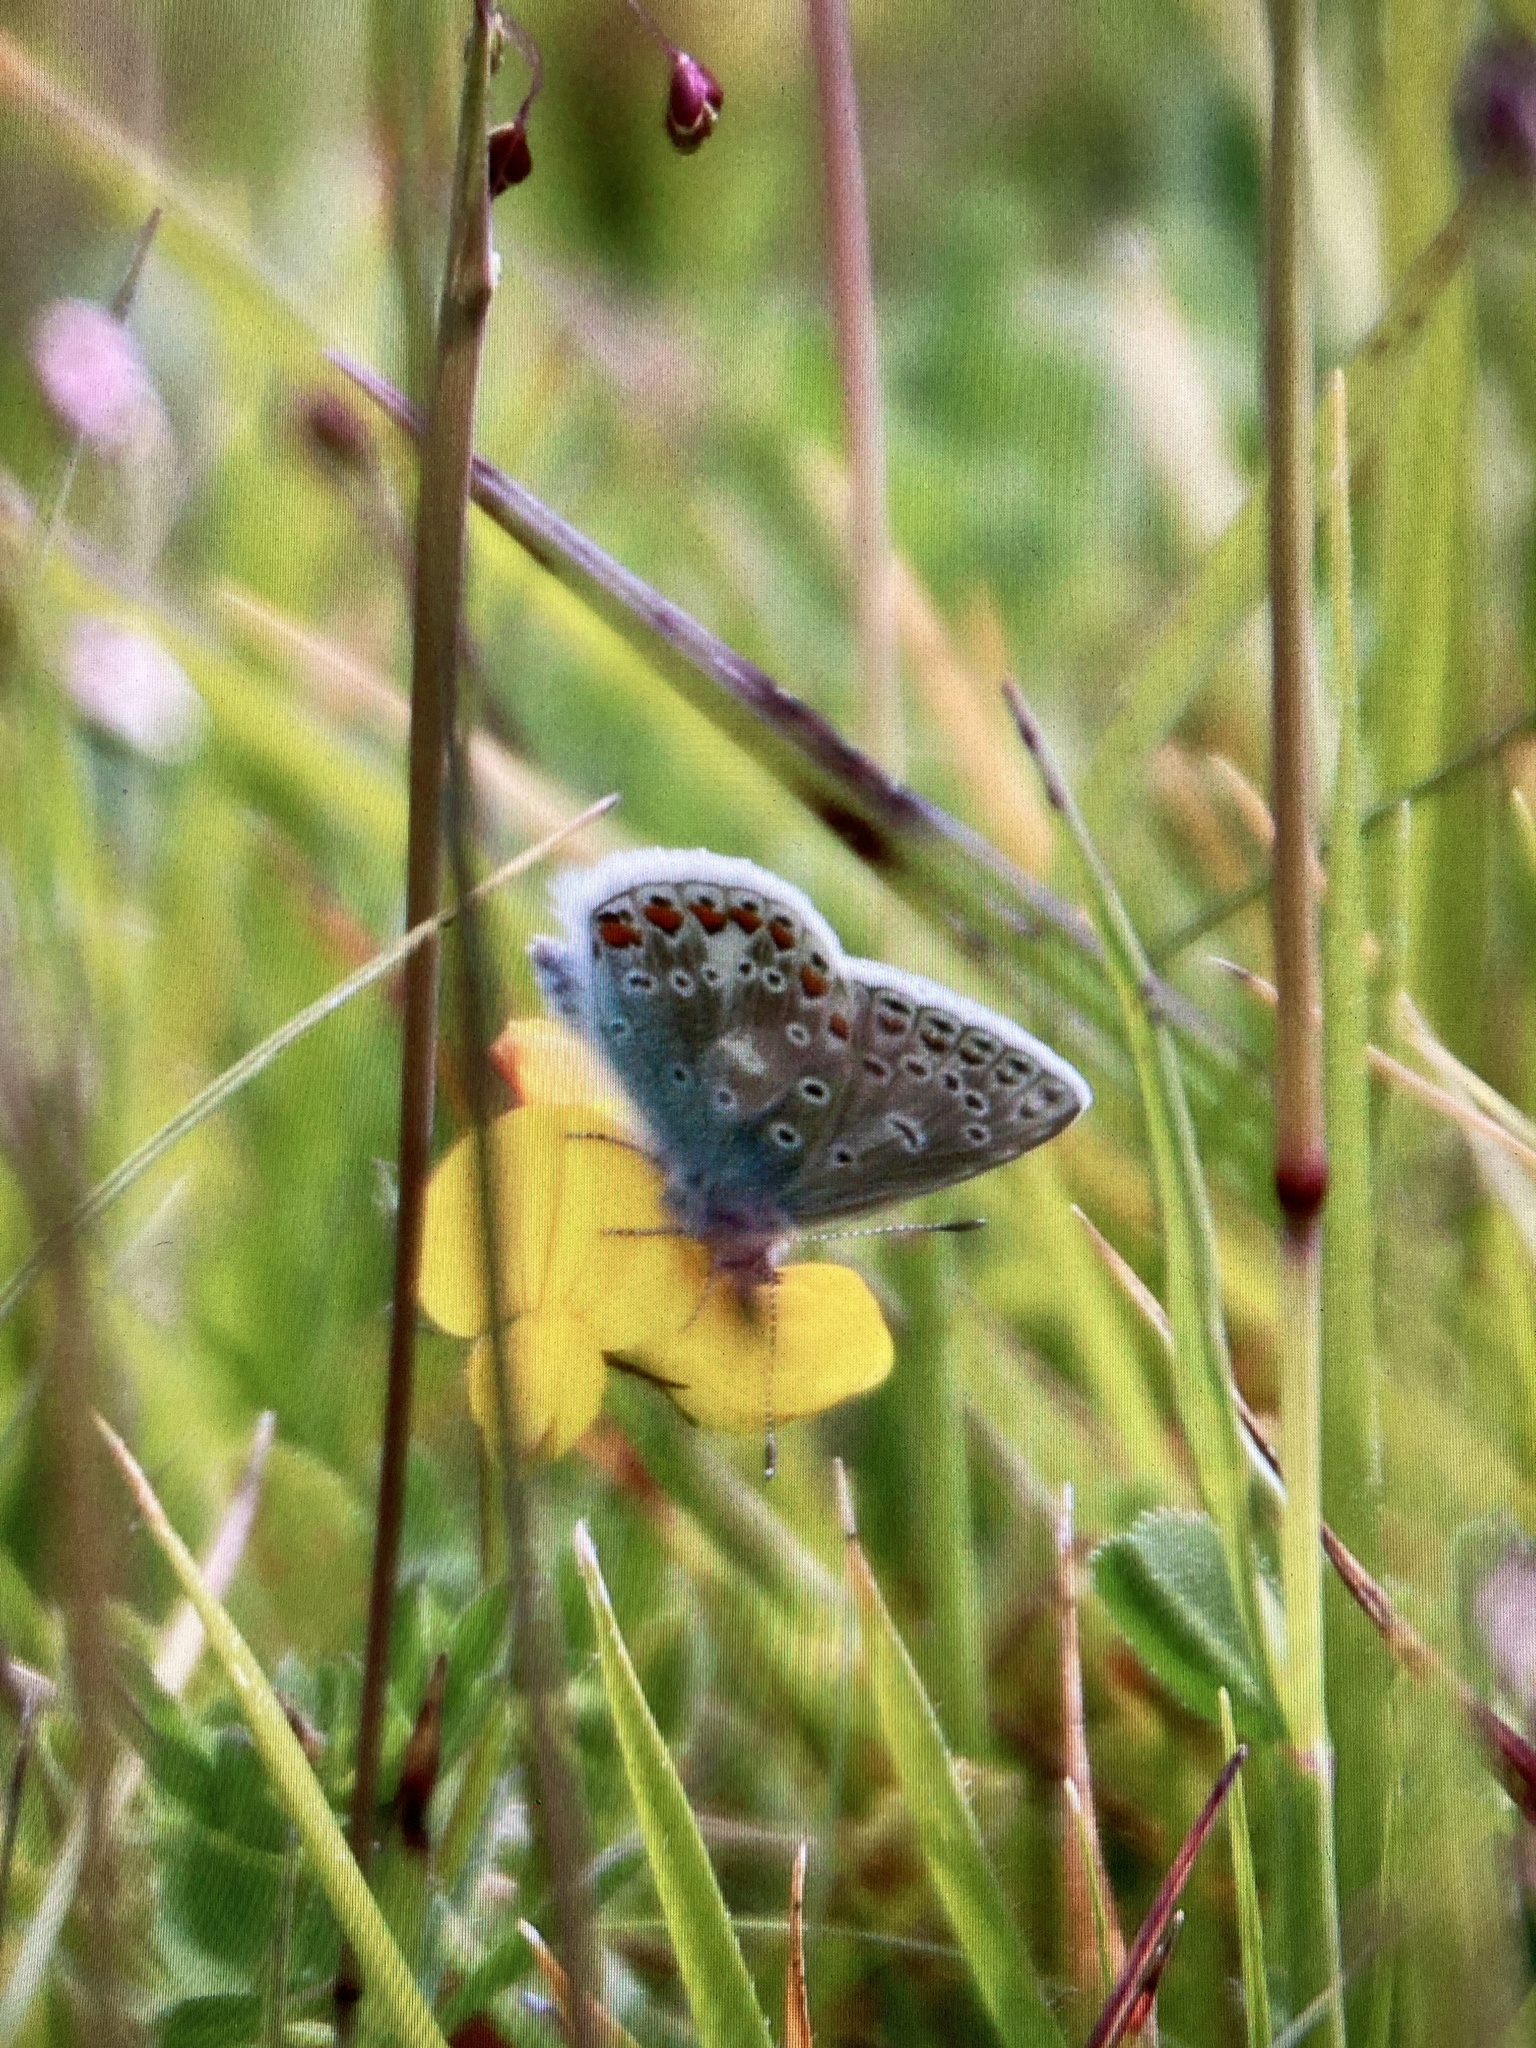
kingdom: Animalia
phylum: Arthropoda
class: Insecta
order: Lepidoptera
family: Lycaenidae
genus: Polyommatus
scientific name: Polyommatus icarus
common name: Common blue
